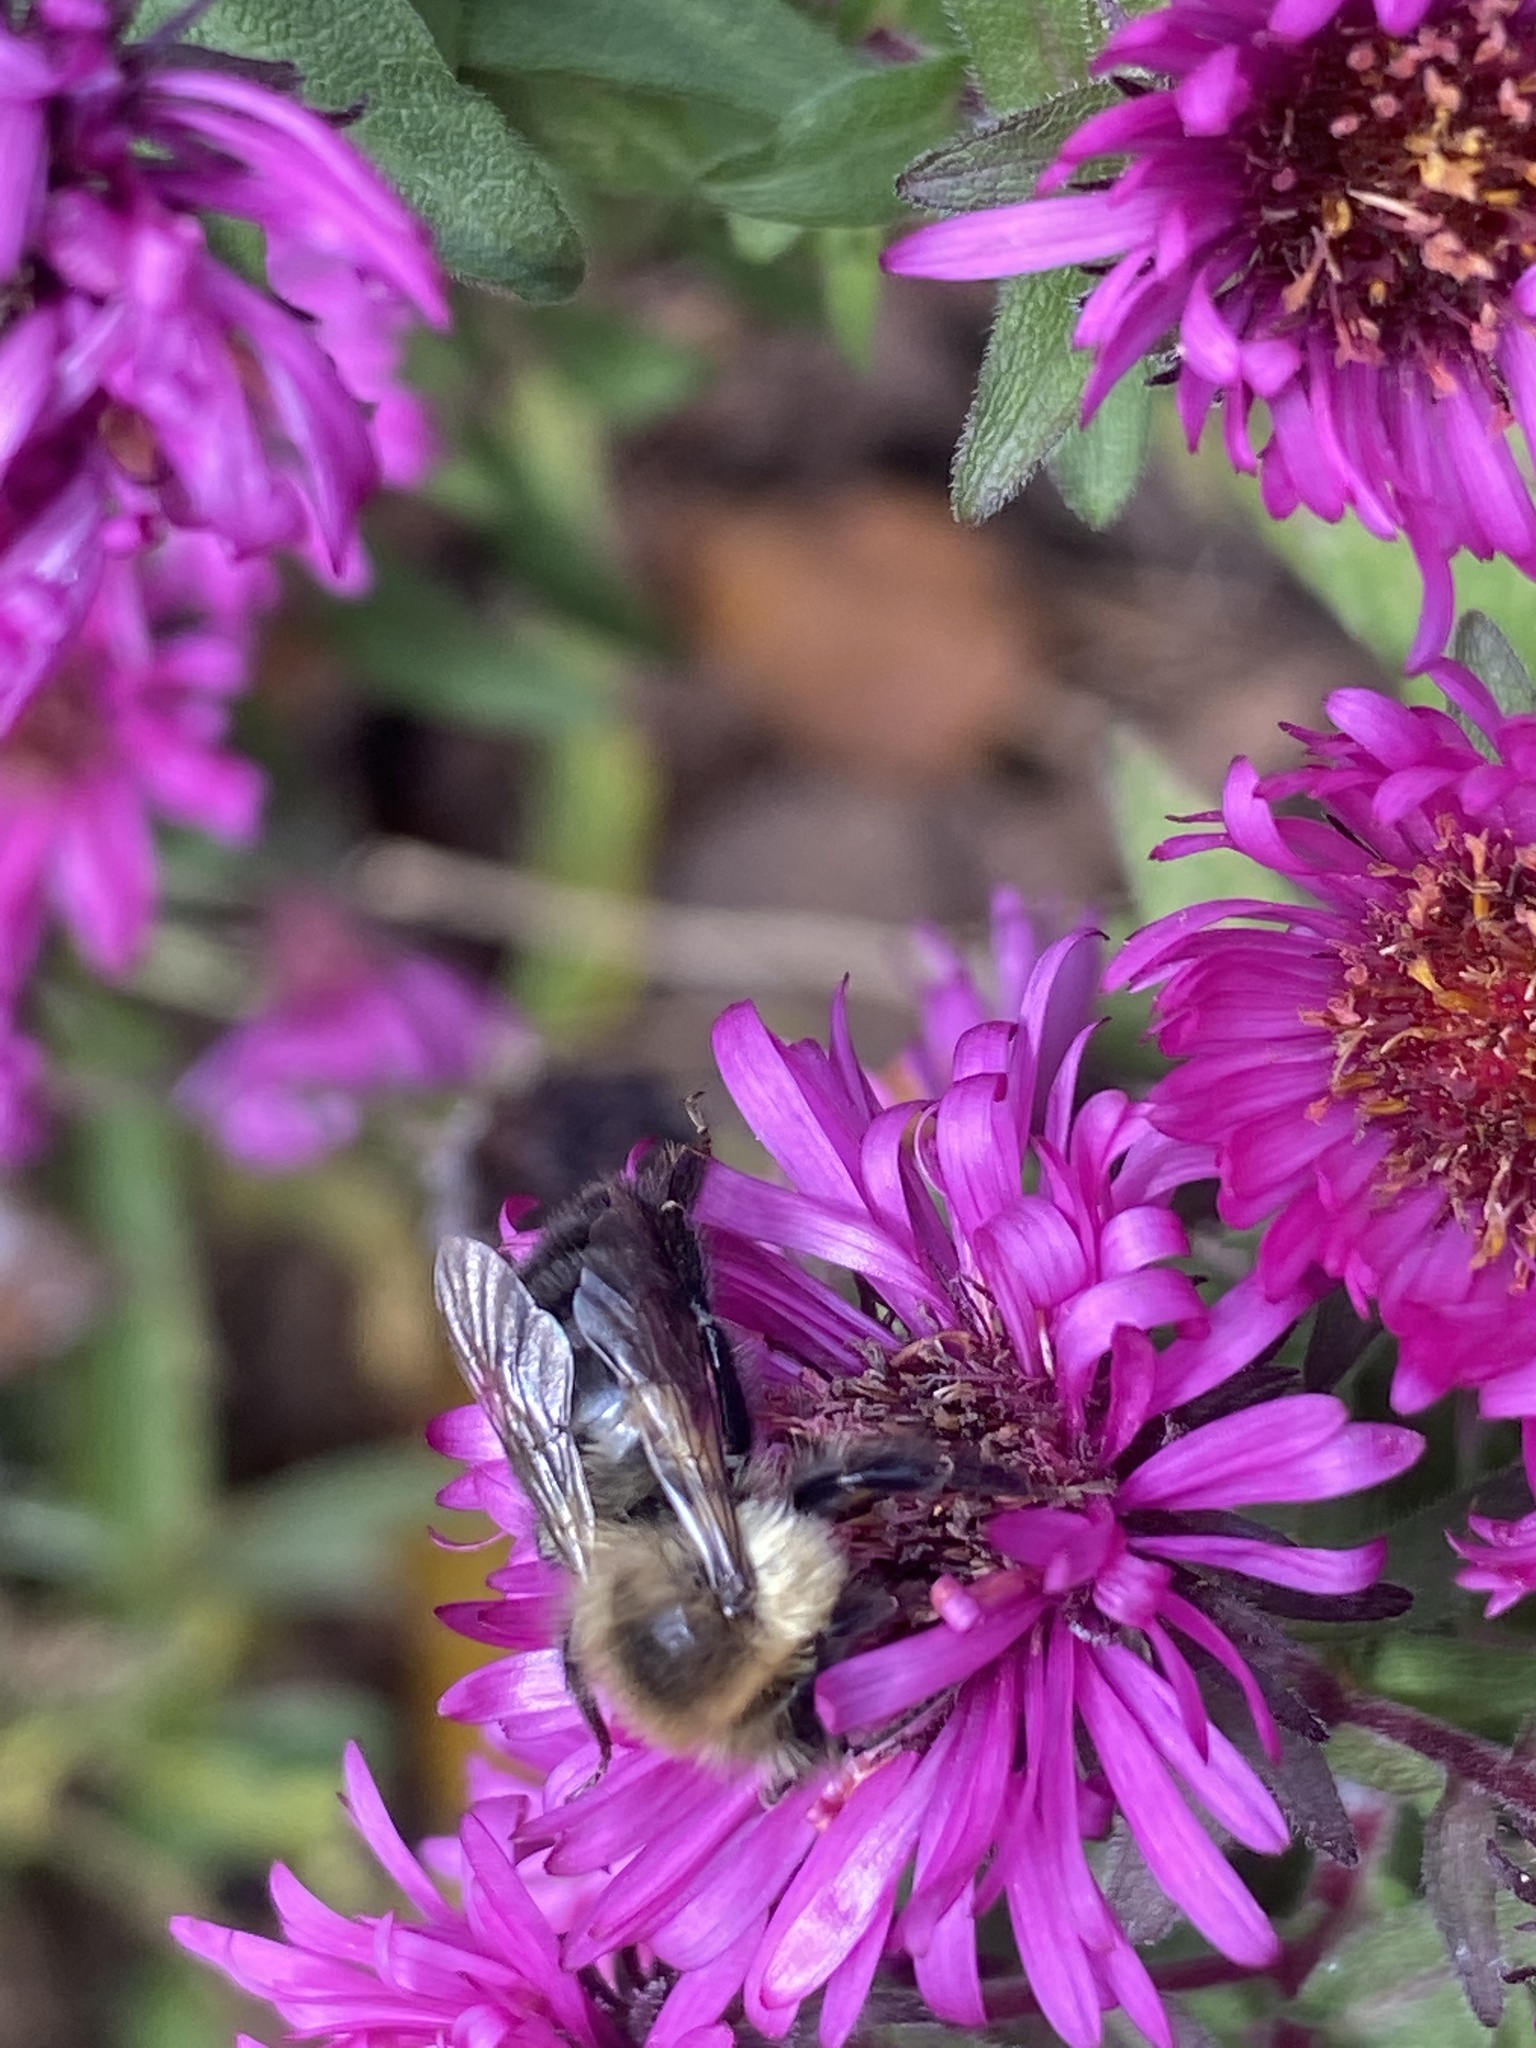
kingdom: Animalia
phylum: Arthropoda
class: Insecta
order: Hymenoptera
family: Apidae
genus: Bombus
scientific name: Bombus impatiens
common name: Common eastern bumble bee
